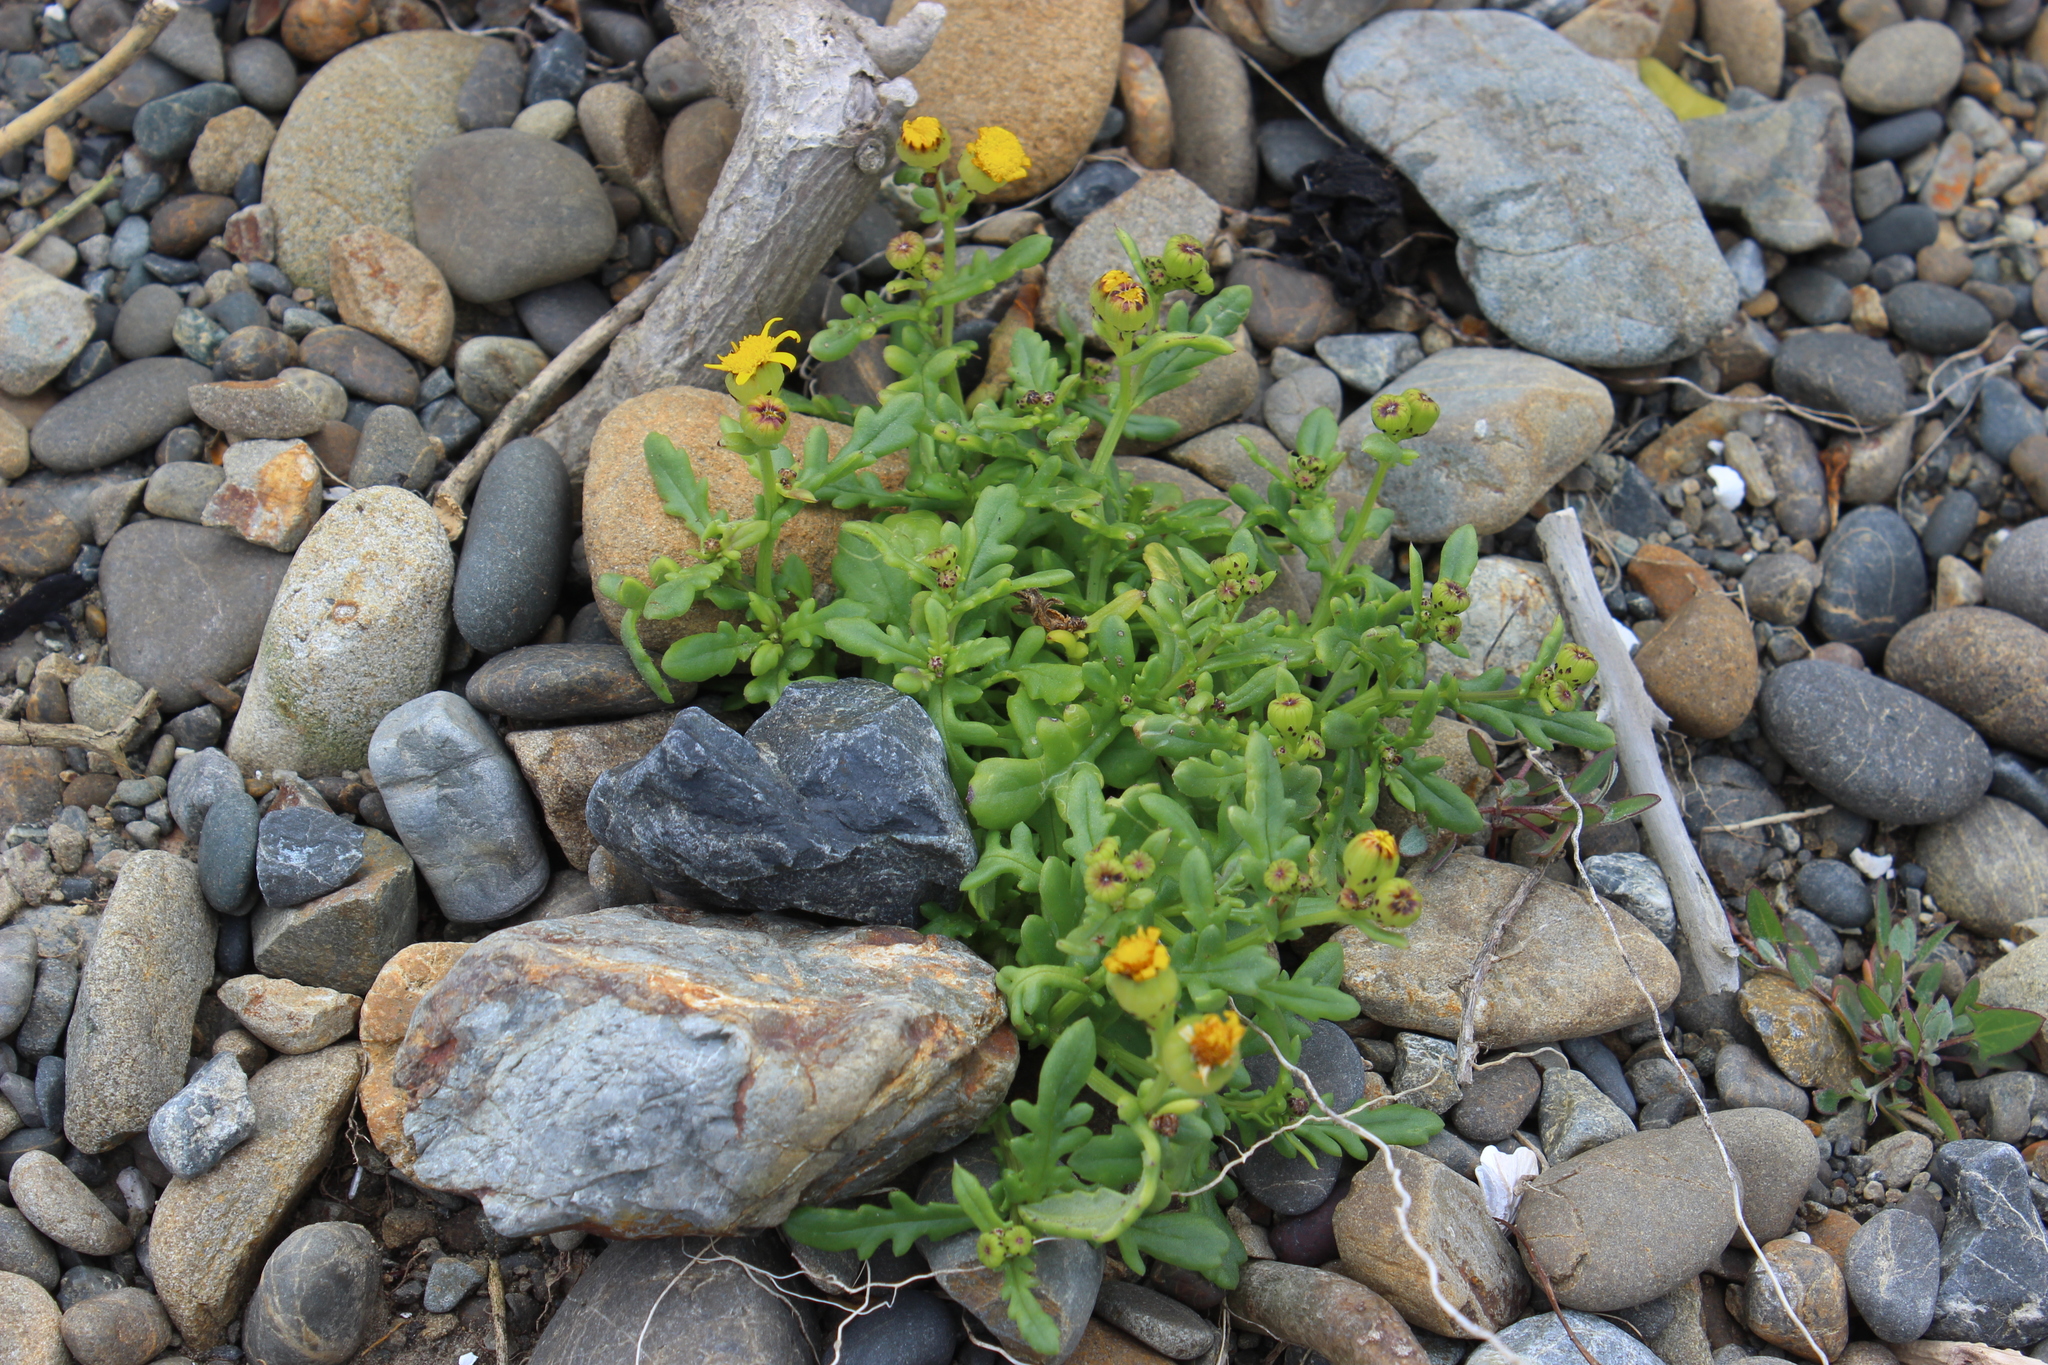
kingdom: Plantae
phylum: Tracheophyta
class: Magnoliopsida
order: Asterales
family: Asteraceae
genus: Senecio
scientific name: Senecio lautus
